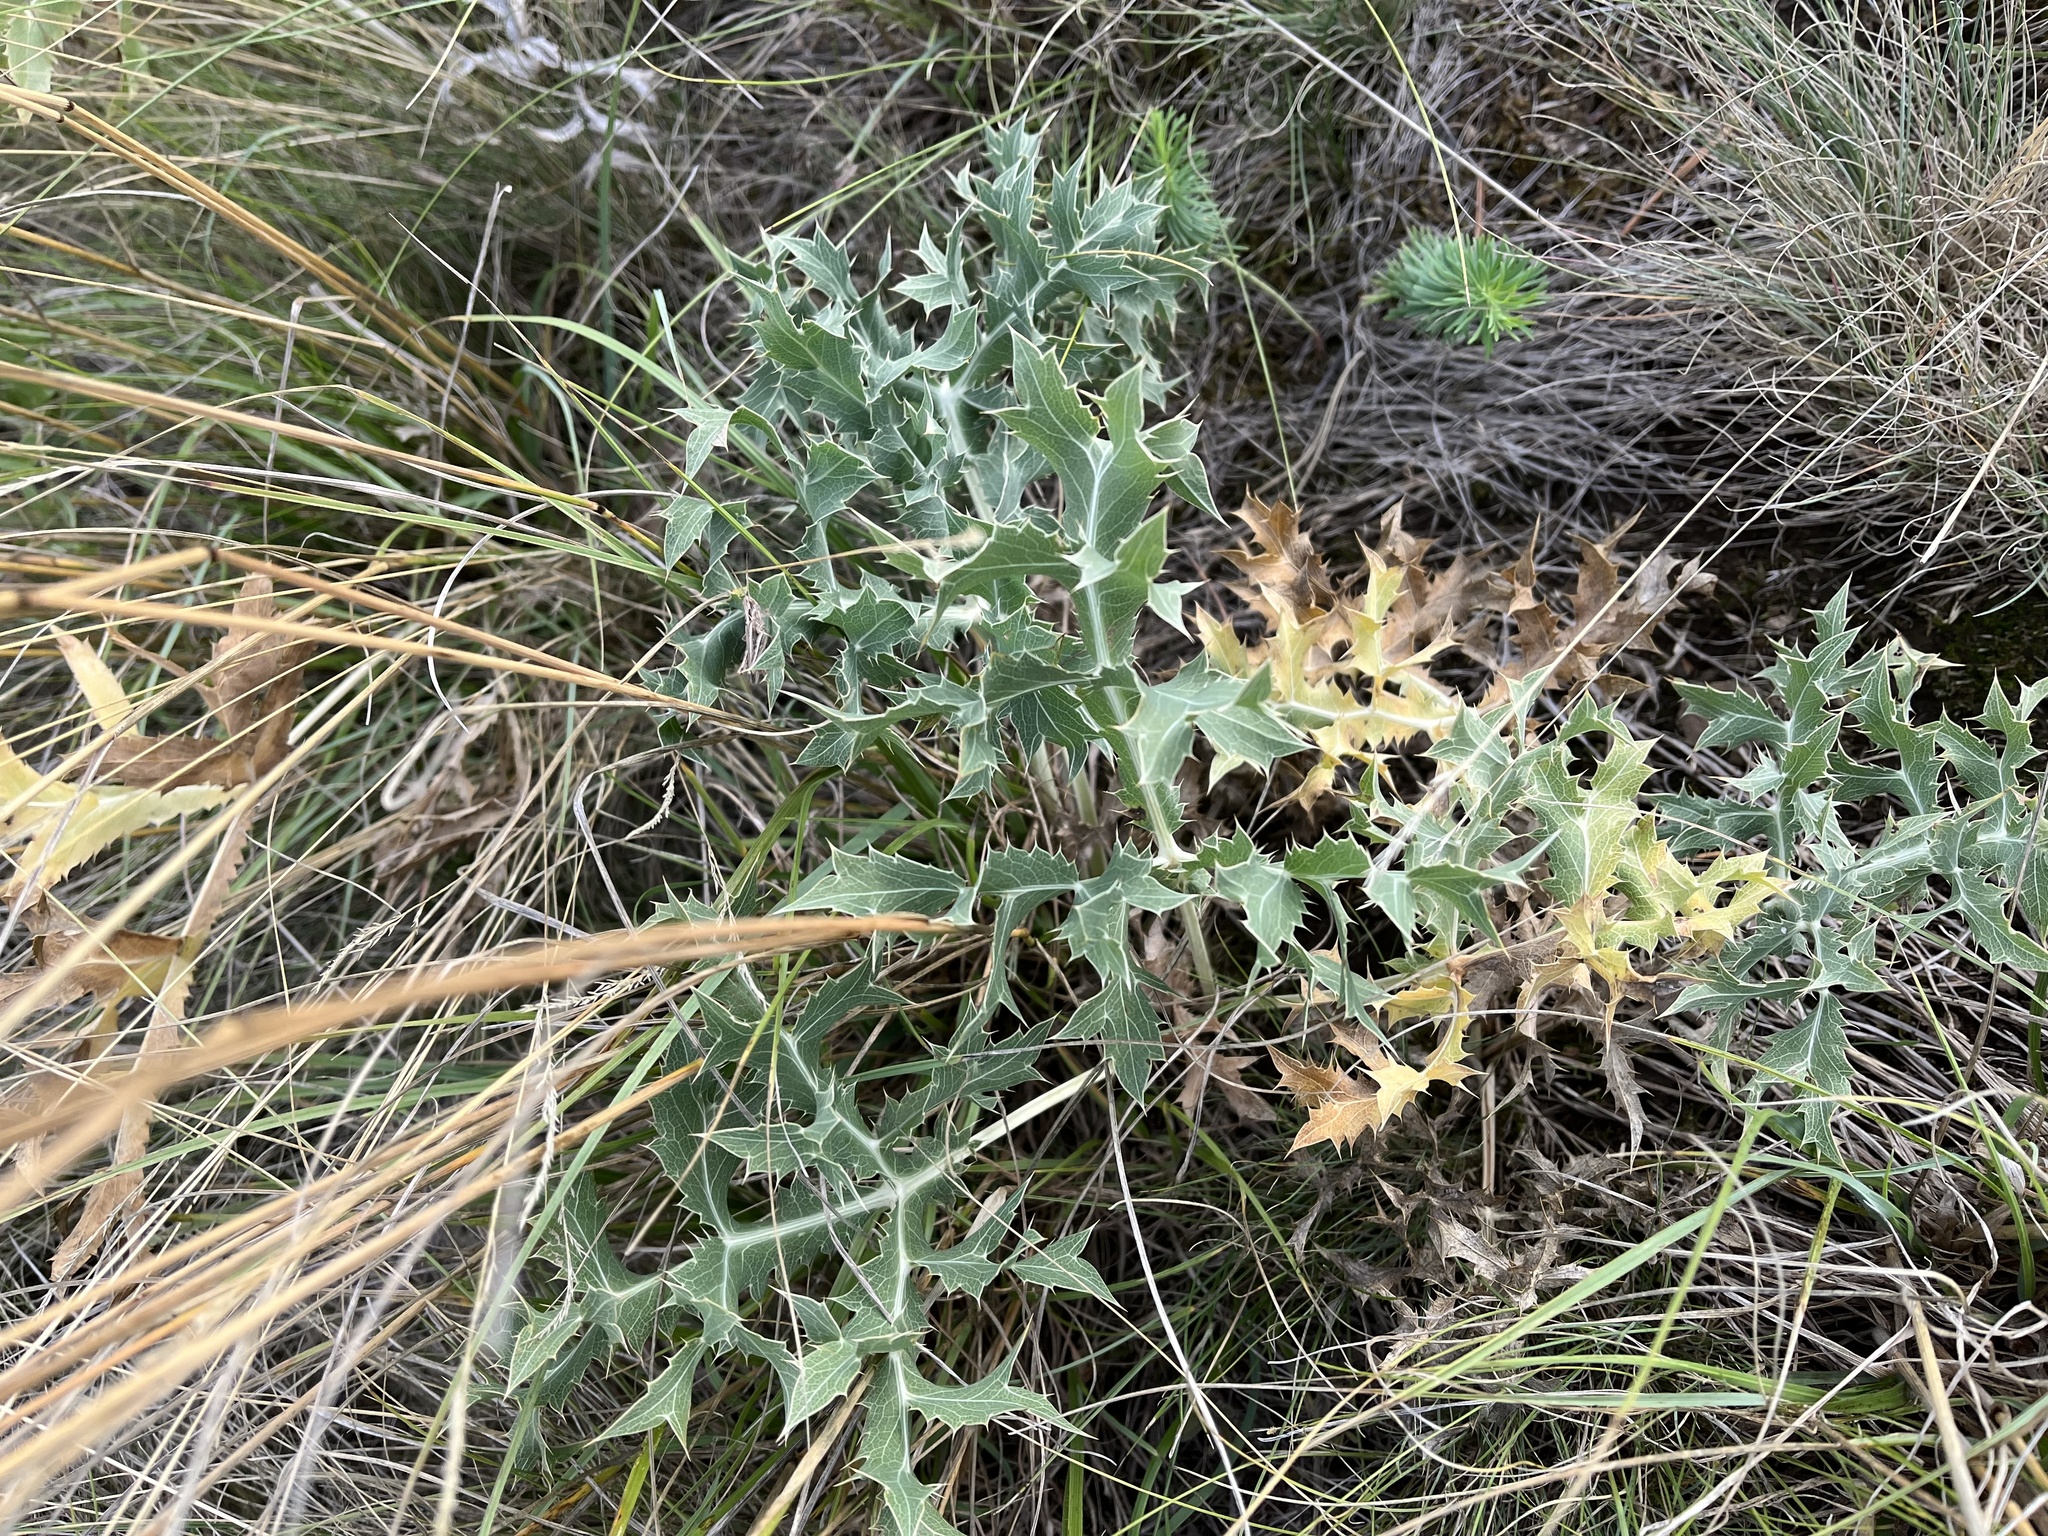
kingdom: Plantae
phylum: Tracheophyta
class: Magnoliopsida
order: Apiales
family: Apiaceae
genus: Eryngium
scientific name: Eryngium campestre
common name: Field eryngo
